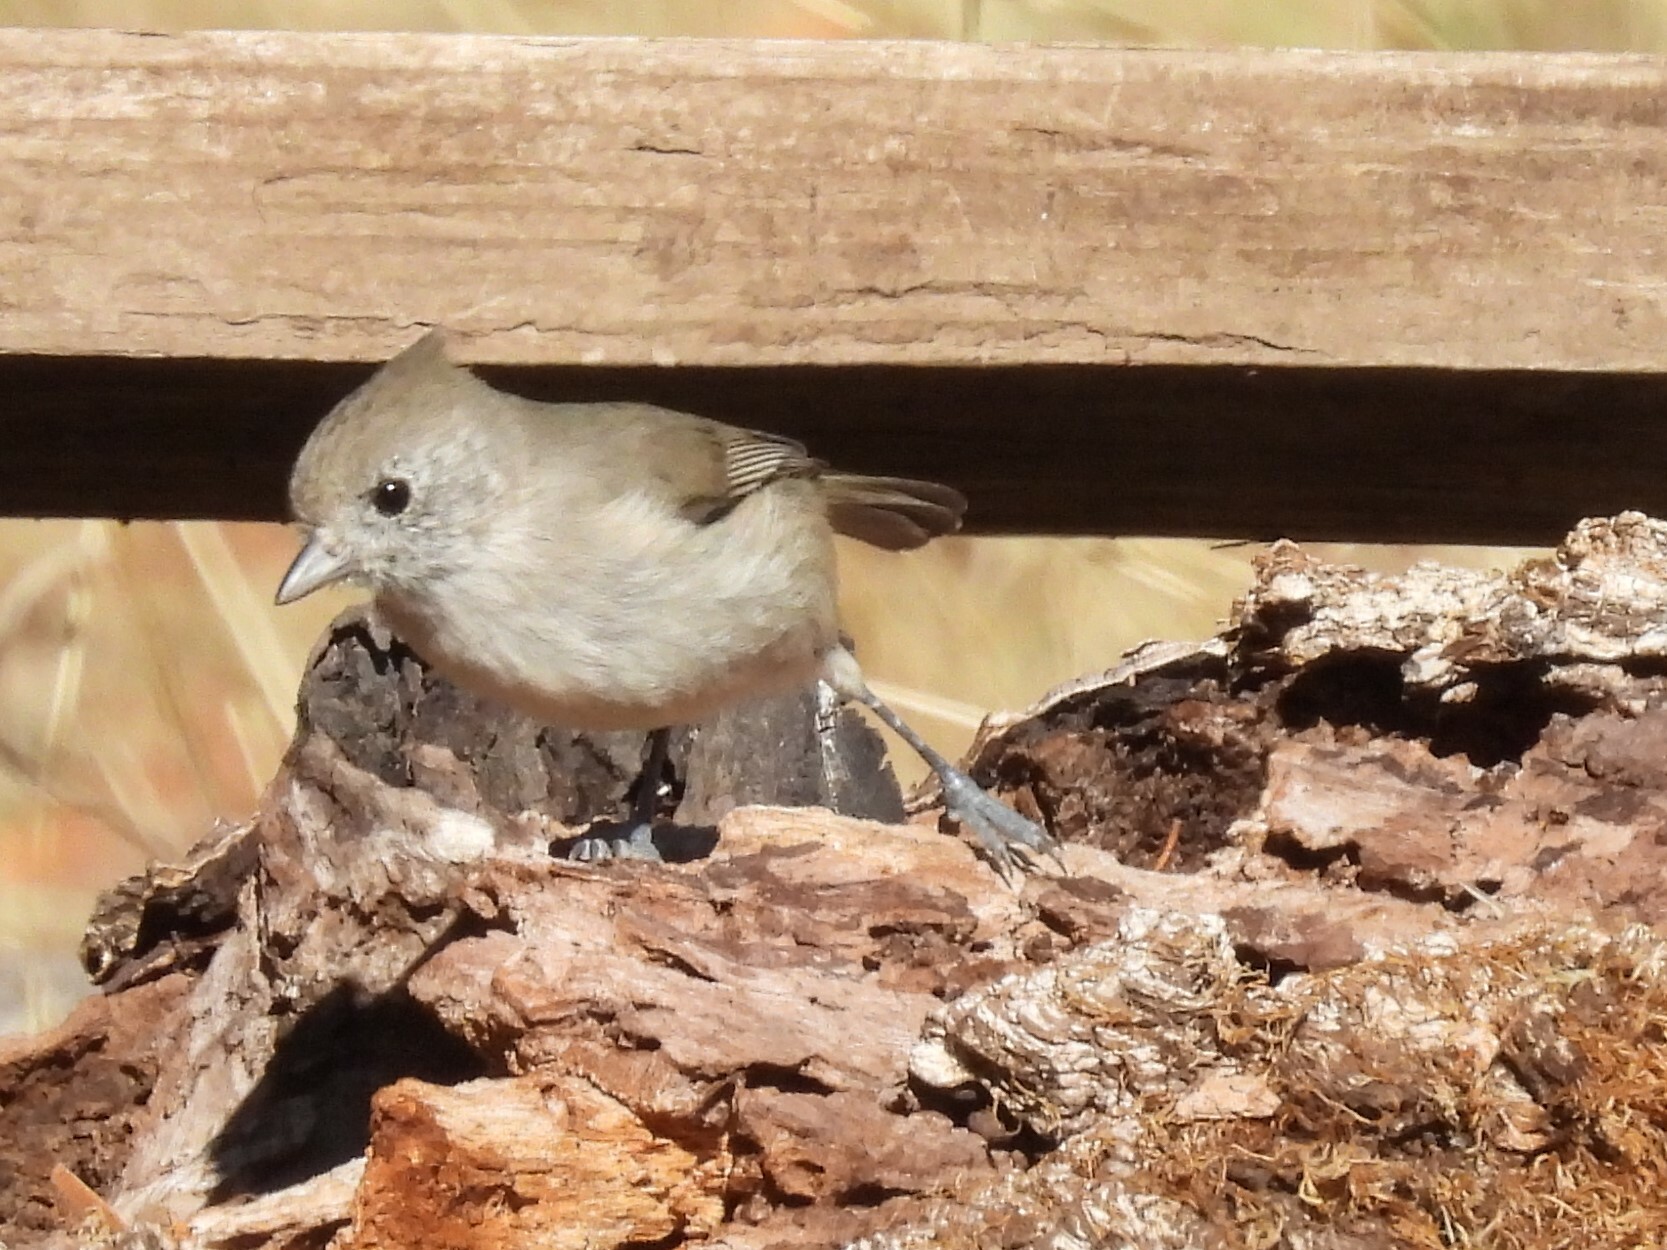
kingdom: Animalia
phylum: Chordata
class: Aves
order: Passeriformes
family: Paridae
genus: Baeolophus
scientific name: Baeolophus inornatus
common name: Oak titmouse
